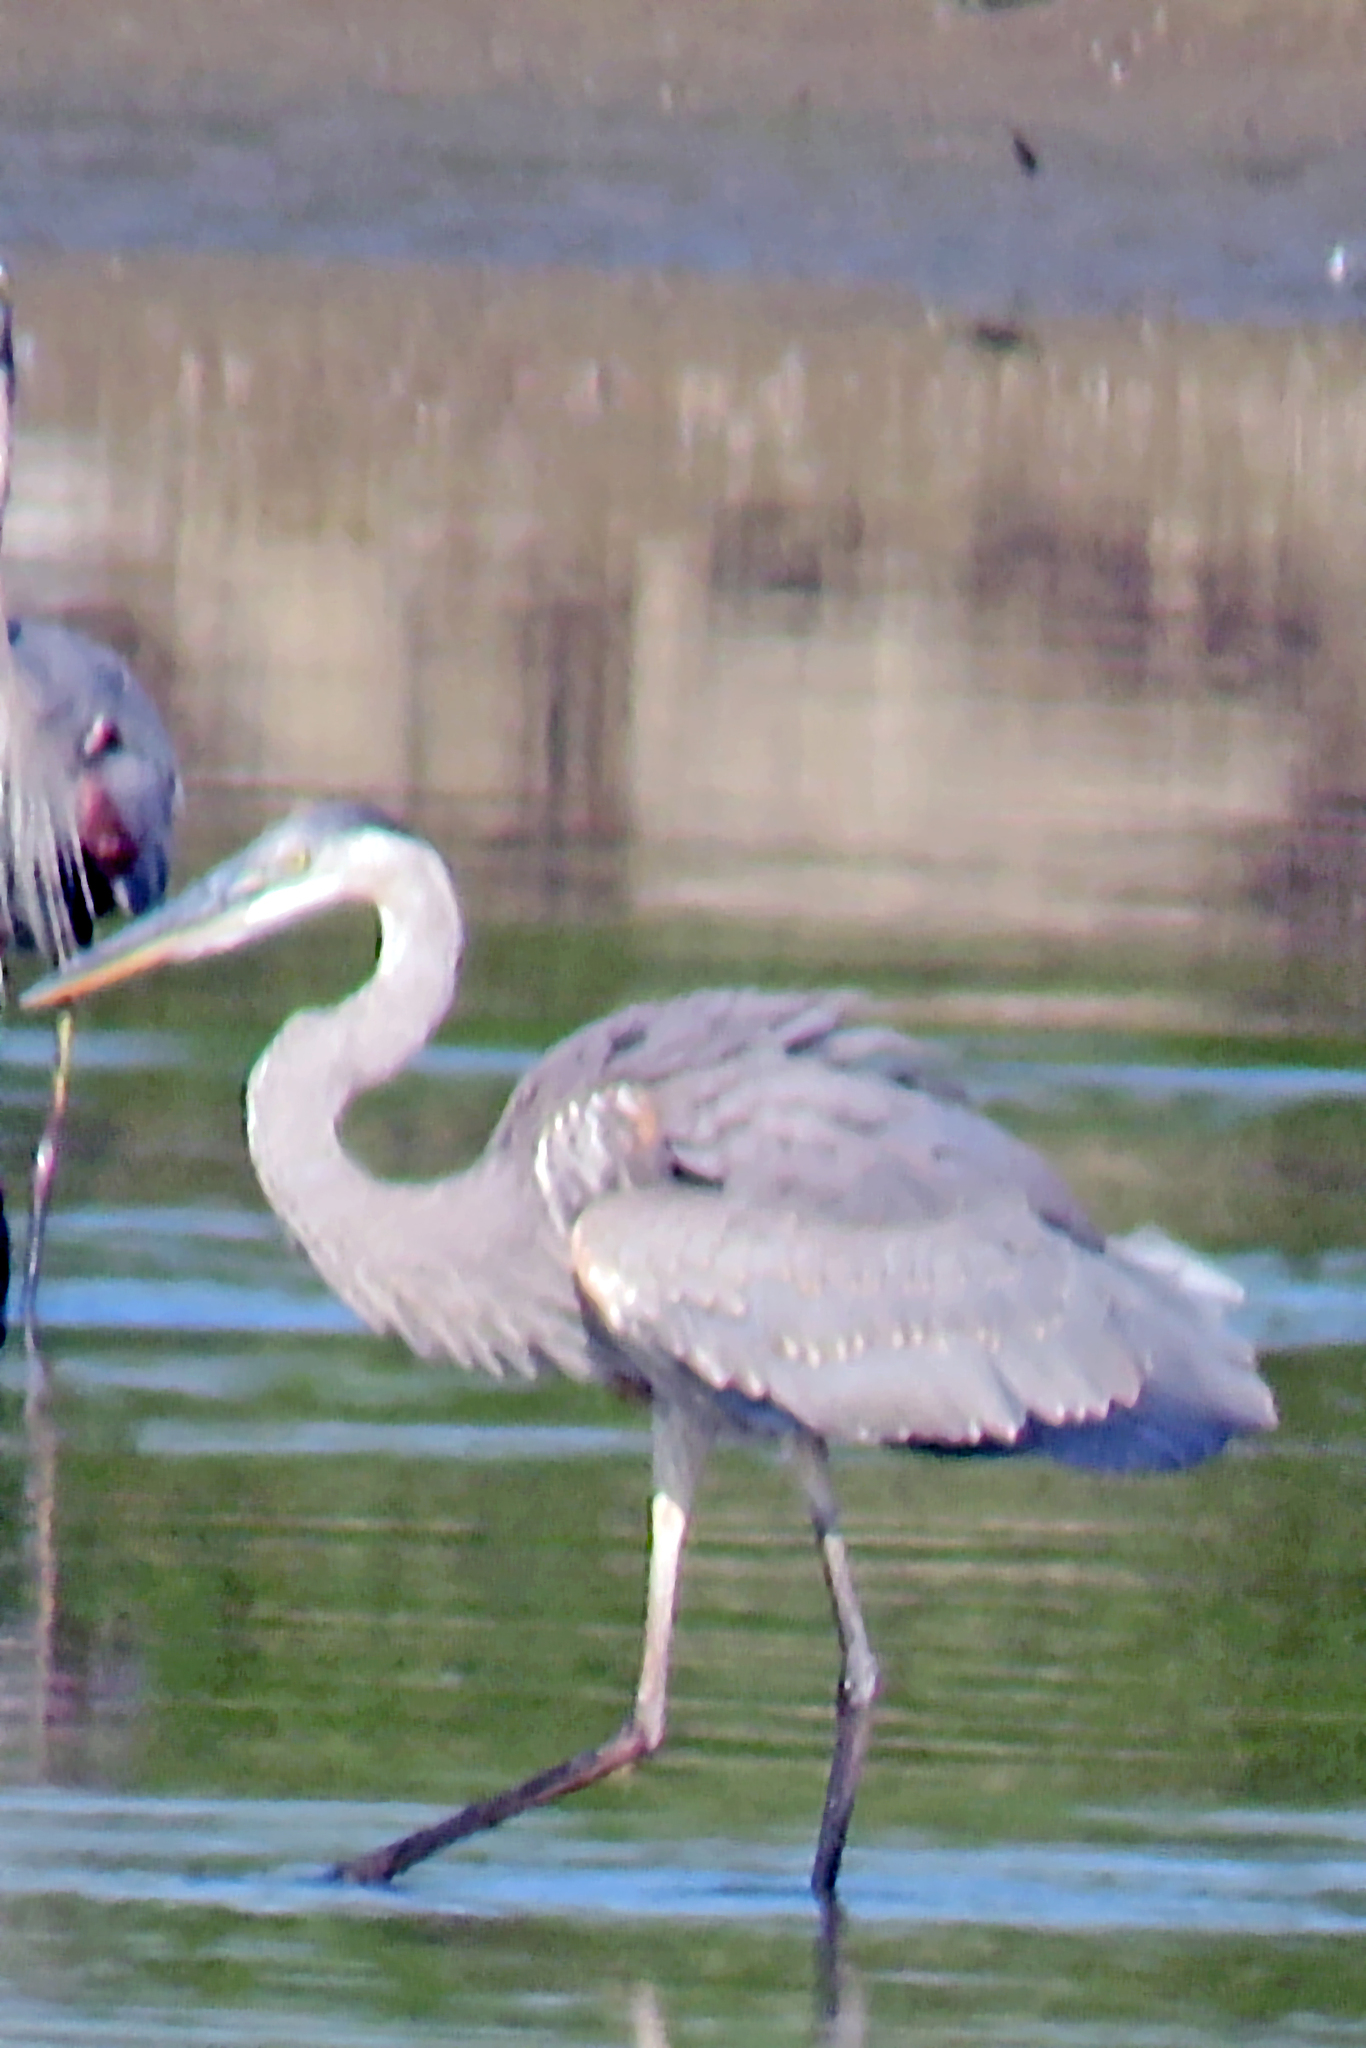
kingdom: Animalia
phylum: Chordata
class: Aves
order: Pelecaniformes
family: Ardeidae
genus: Ardea
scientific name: Ardea herodias
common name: Great blue heron
